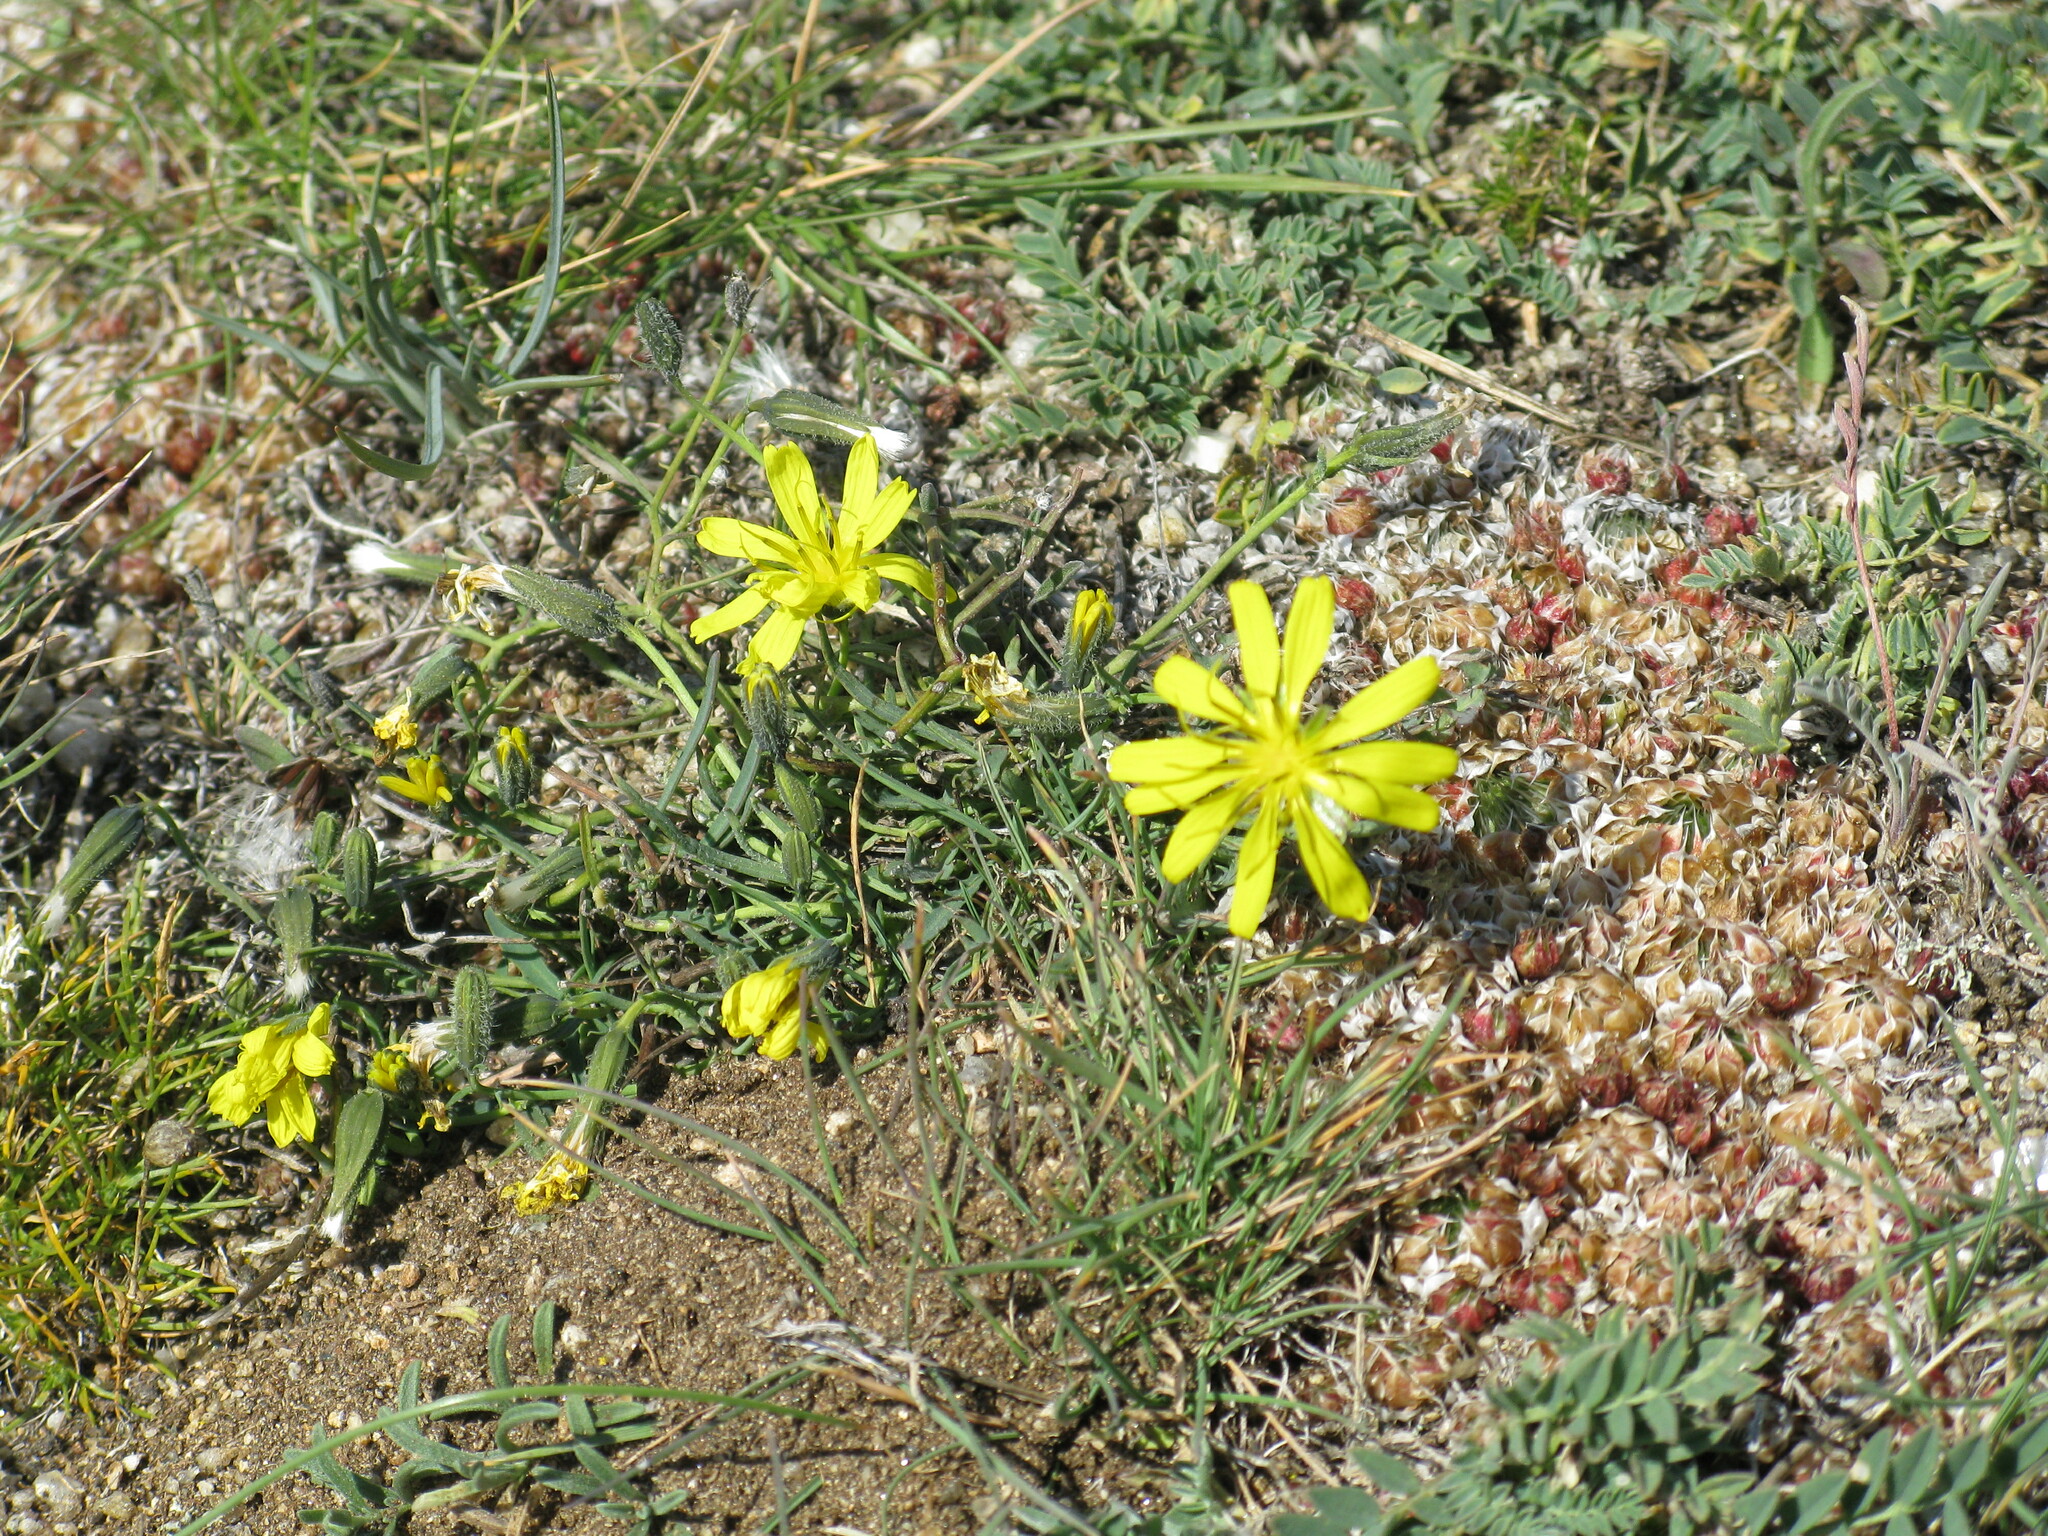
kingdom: Plantae
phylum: Tracheophyta
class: Magnoliopsida
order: Asterales
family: Asteraceae
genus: Crepidiastrum
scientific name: Crepidiastrum tenuifolium
